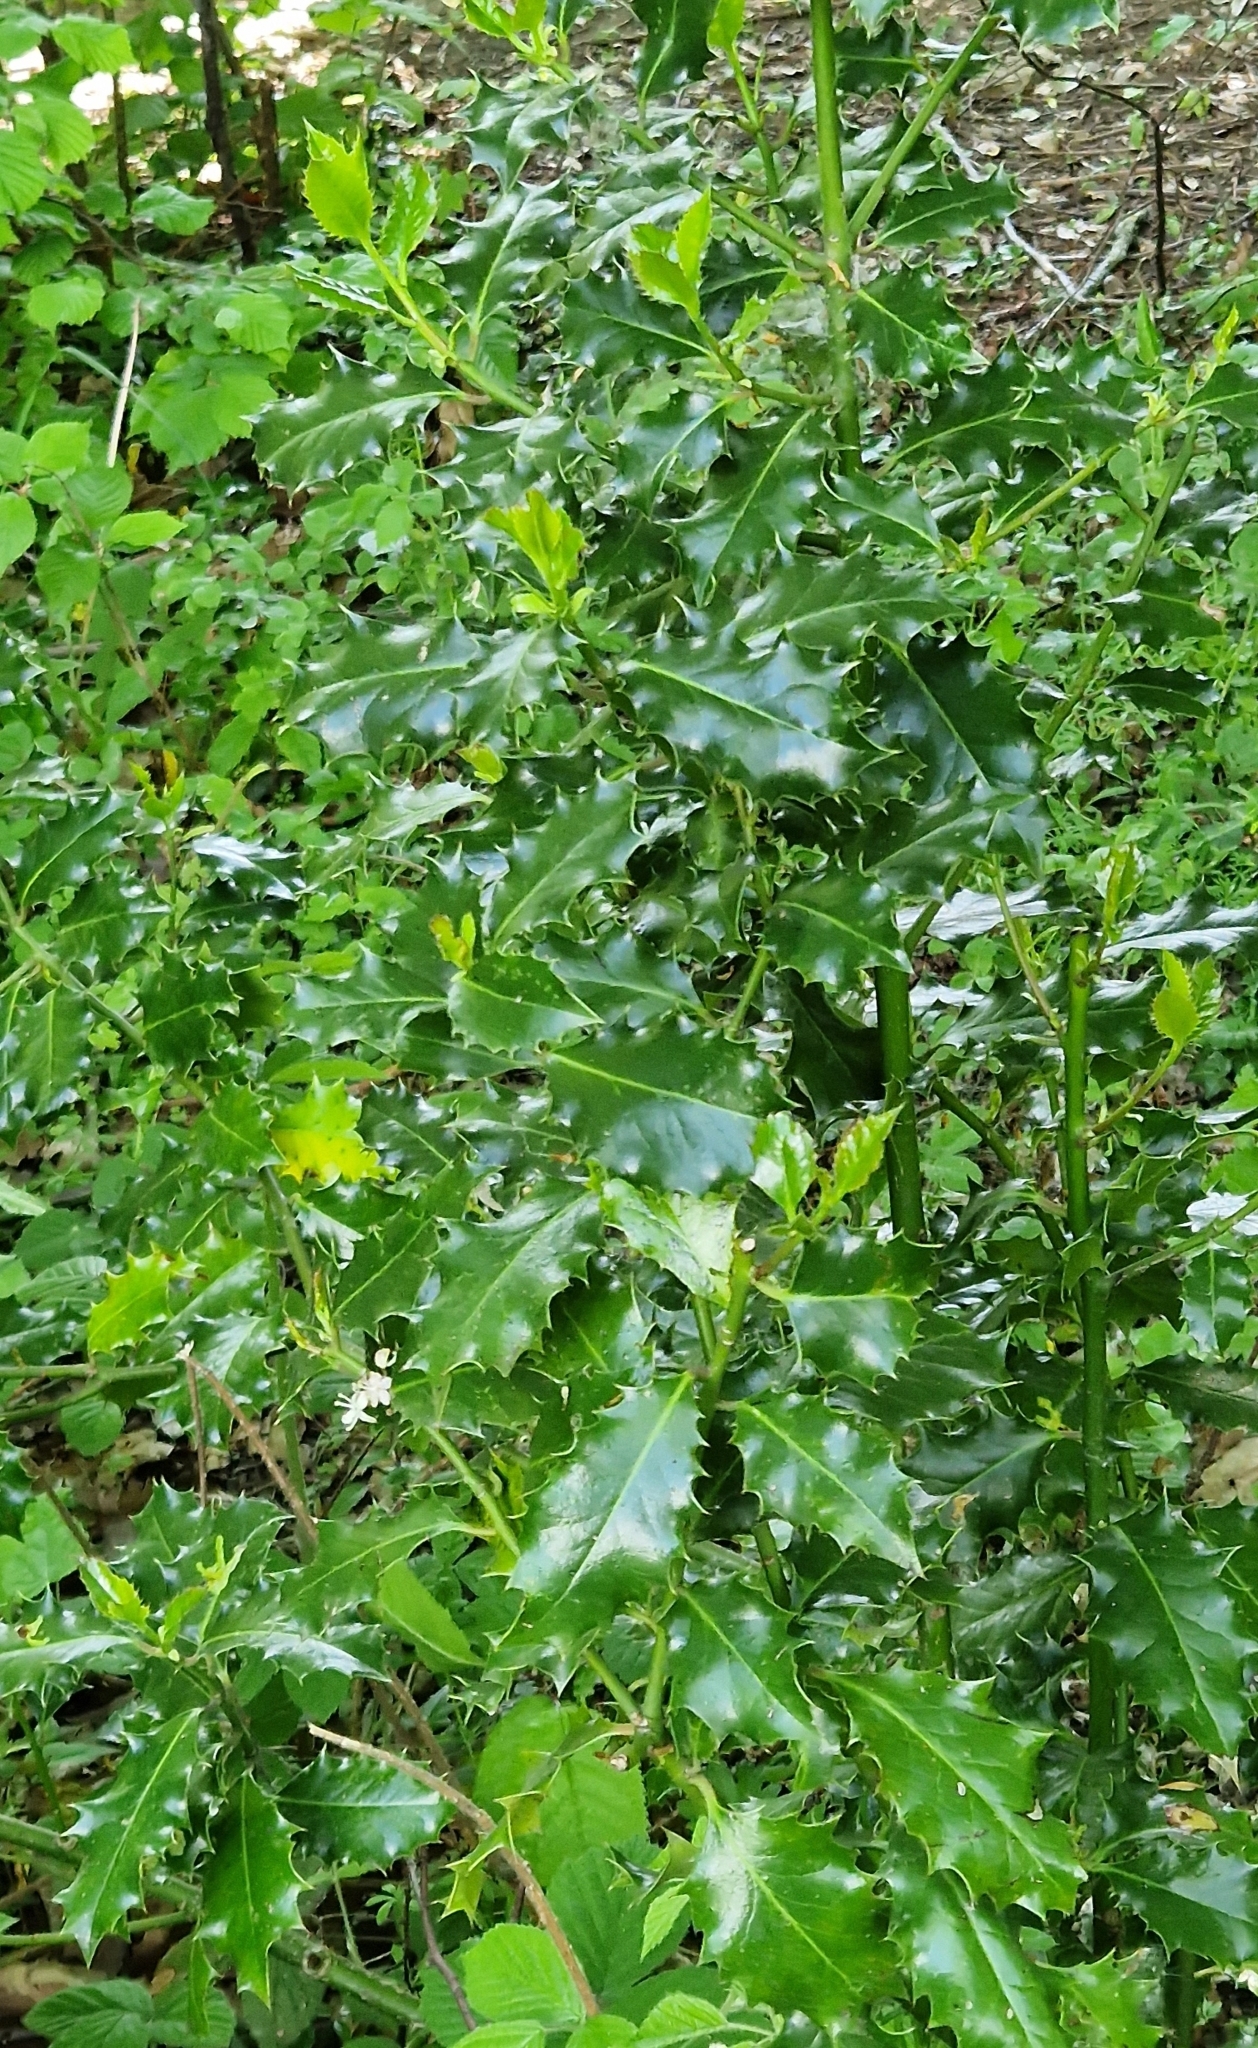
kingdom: Plantae
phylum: Tracheophyta
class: Magnoliopsida
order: Aquifoliales
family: Aquifoliaceae
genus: Ilex
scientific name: Ilex aquifolium
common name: English holly
